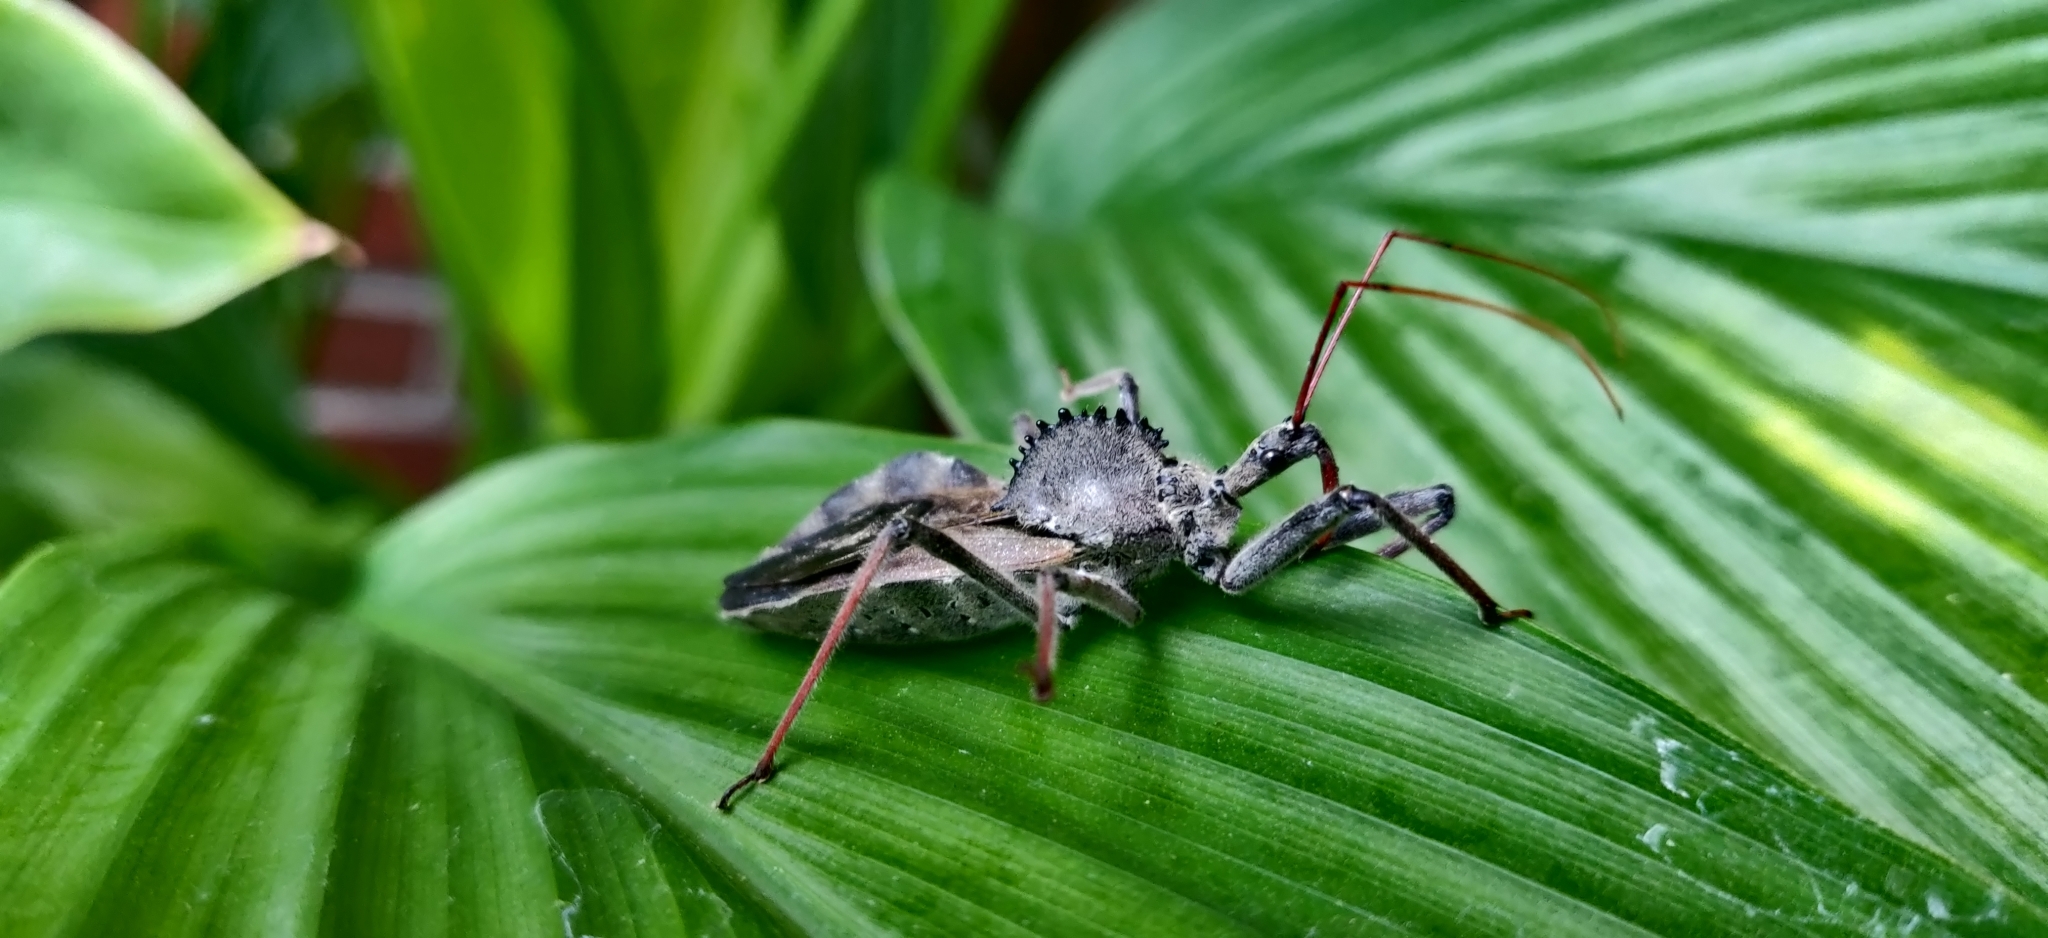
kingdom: Animalia
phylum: Arthropoda
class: Insecta
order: Hemiptera
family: Reduviidae
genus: Arilus
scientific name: Arilus cristatus
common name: North american wheel bug
